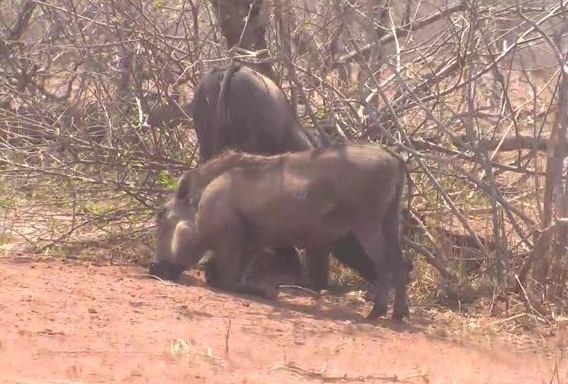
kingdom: Animalia
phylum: Chordata
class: Mammalia
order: Artiodactyla
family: Suidae
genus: Phacochoerus
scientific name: Phacochoerus africanus
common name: Common warthog
